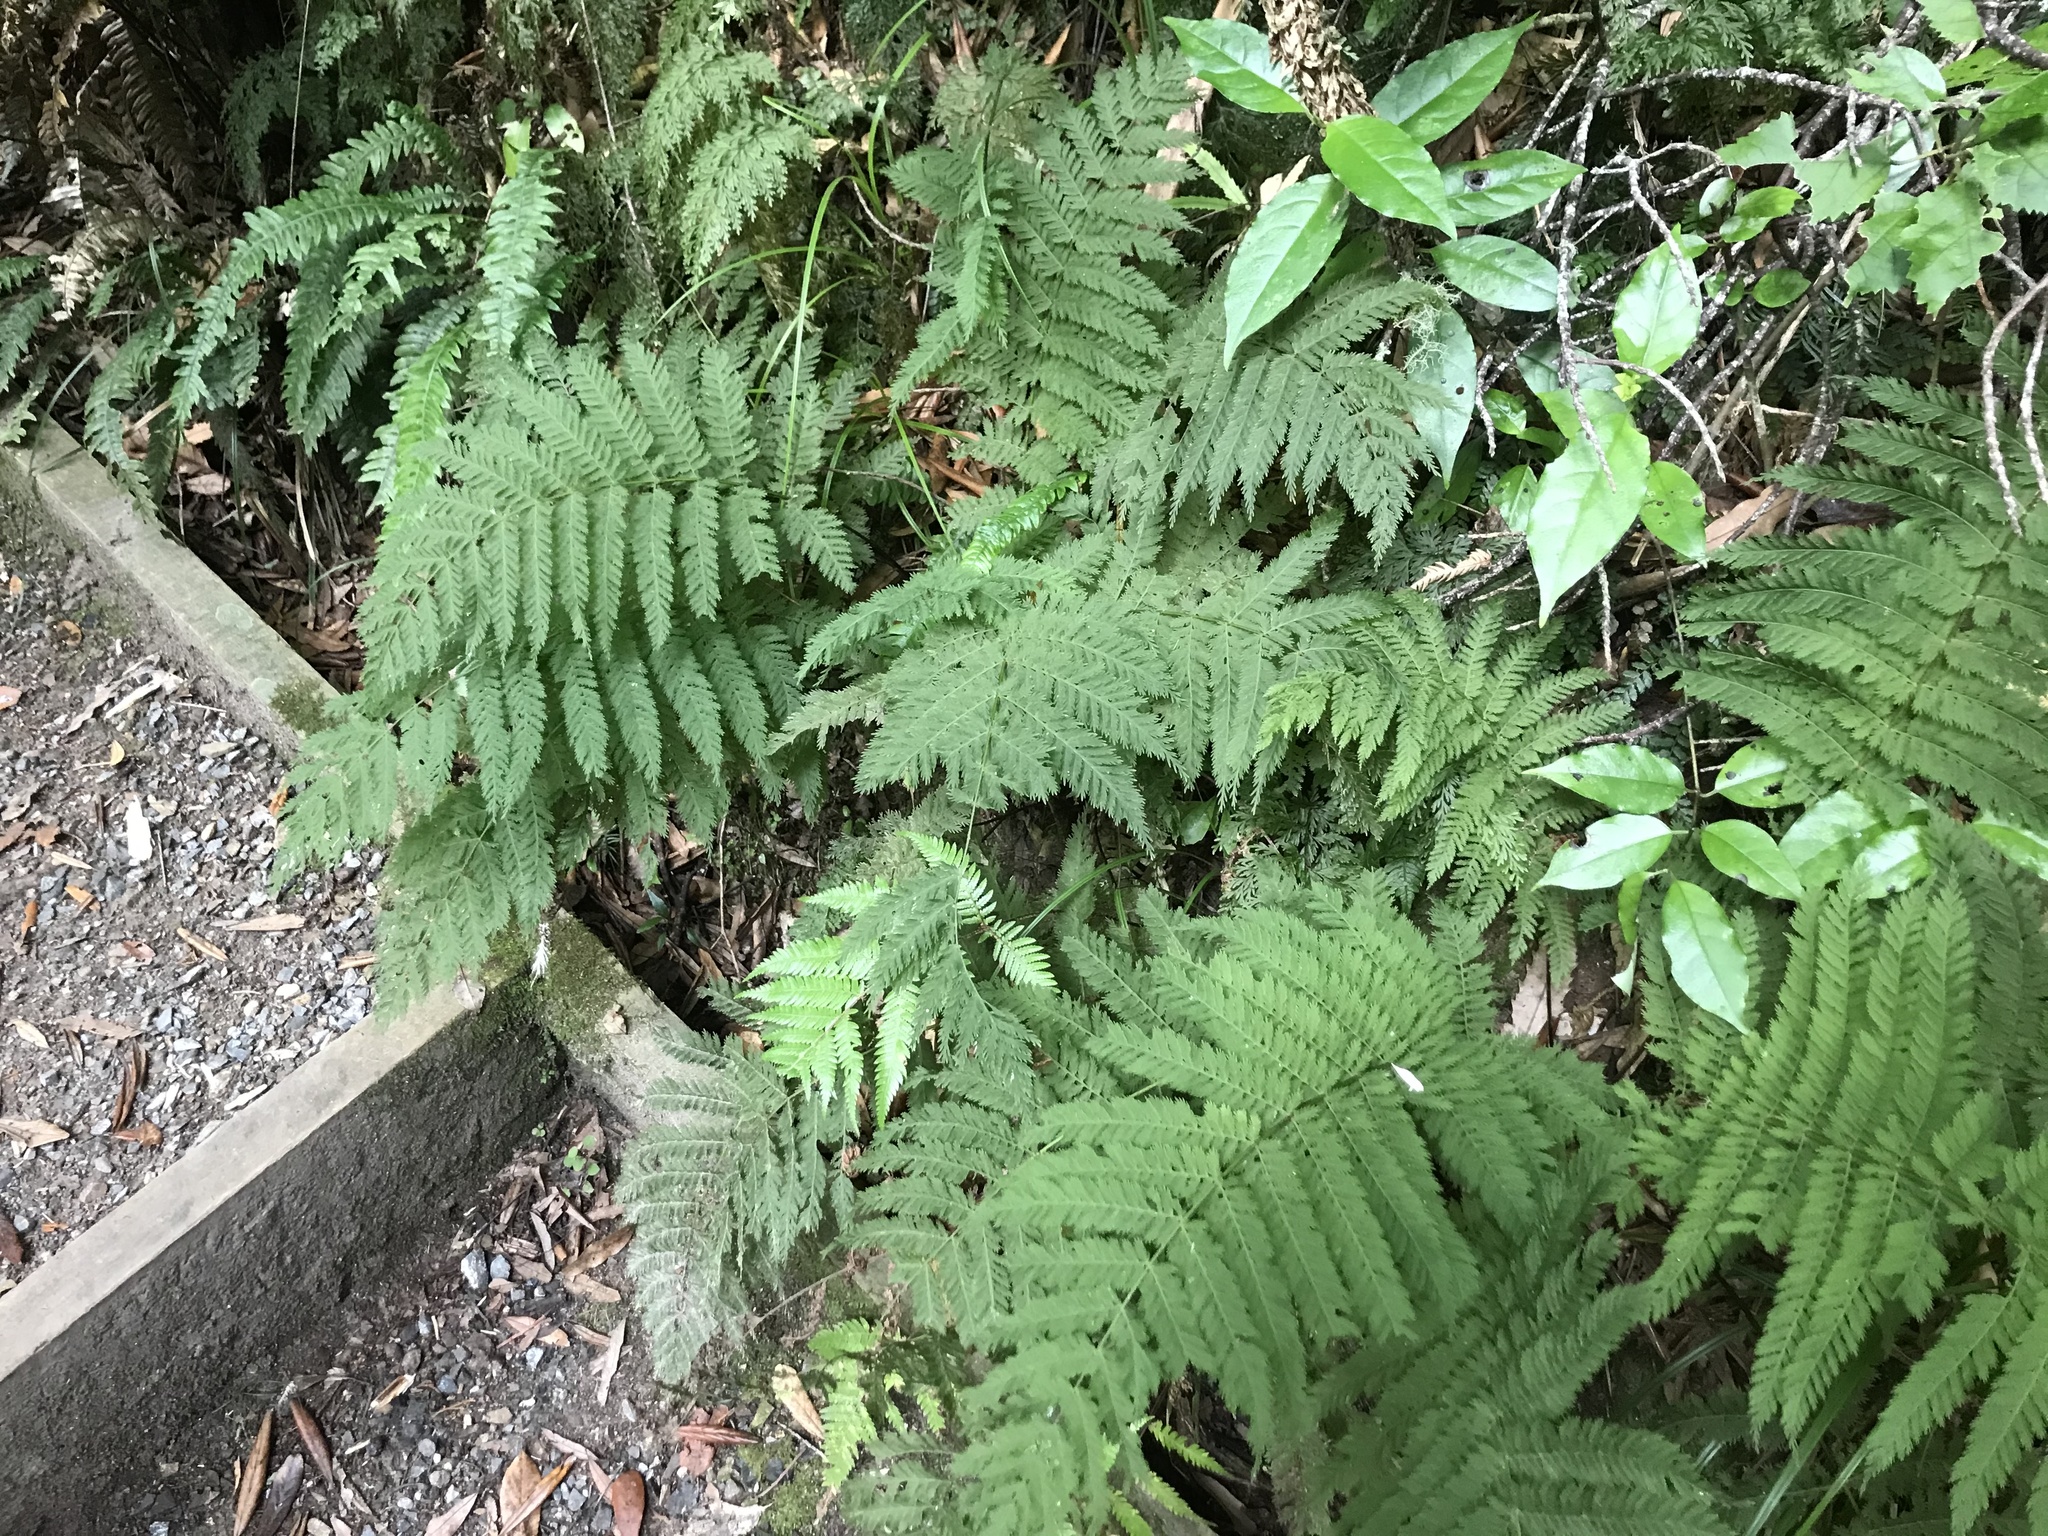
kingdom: Plantae
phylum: Tracheophyta
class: Polypodiopsida
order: Osmundales
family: Osmundaceae
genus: Leptopteris
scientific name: Leptopteris hymenophylloides
